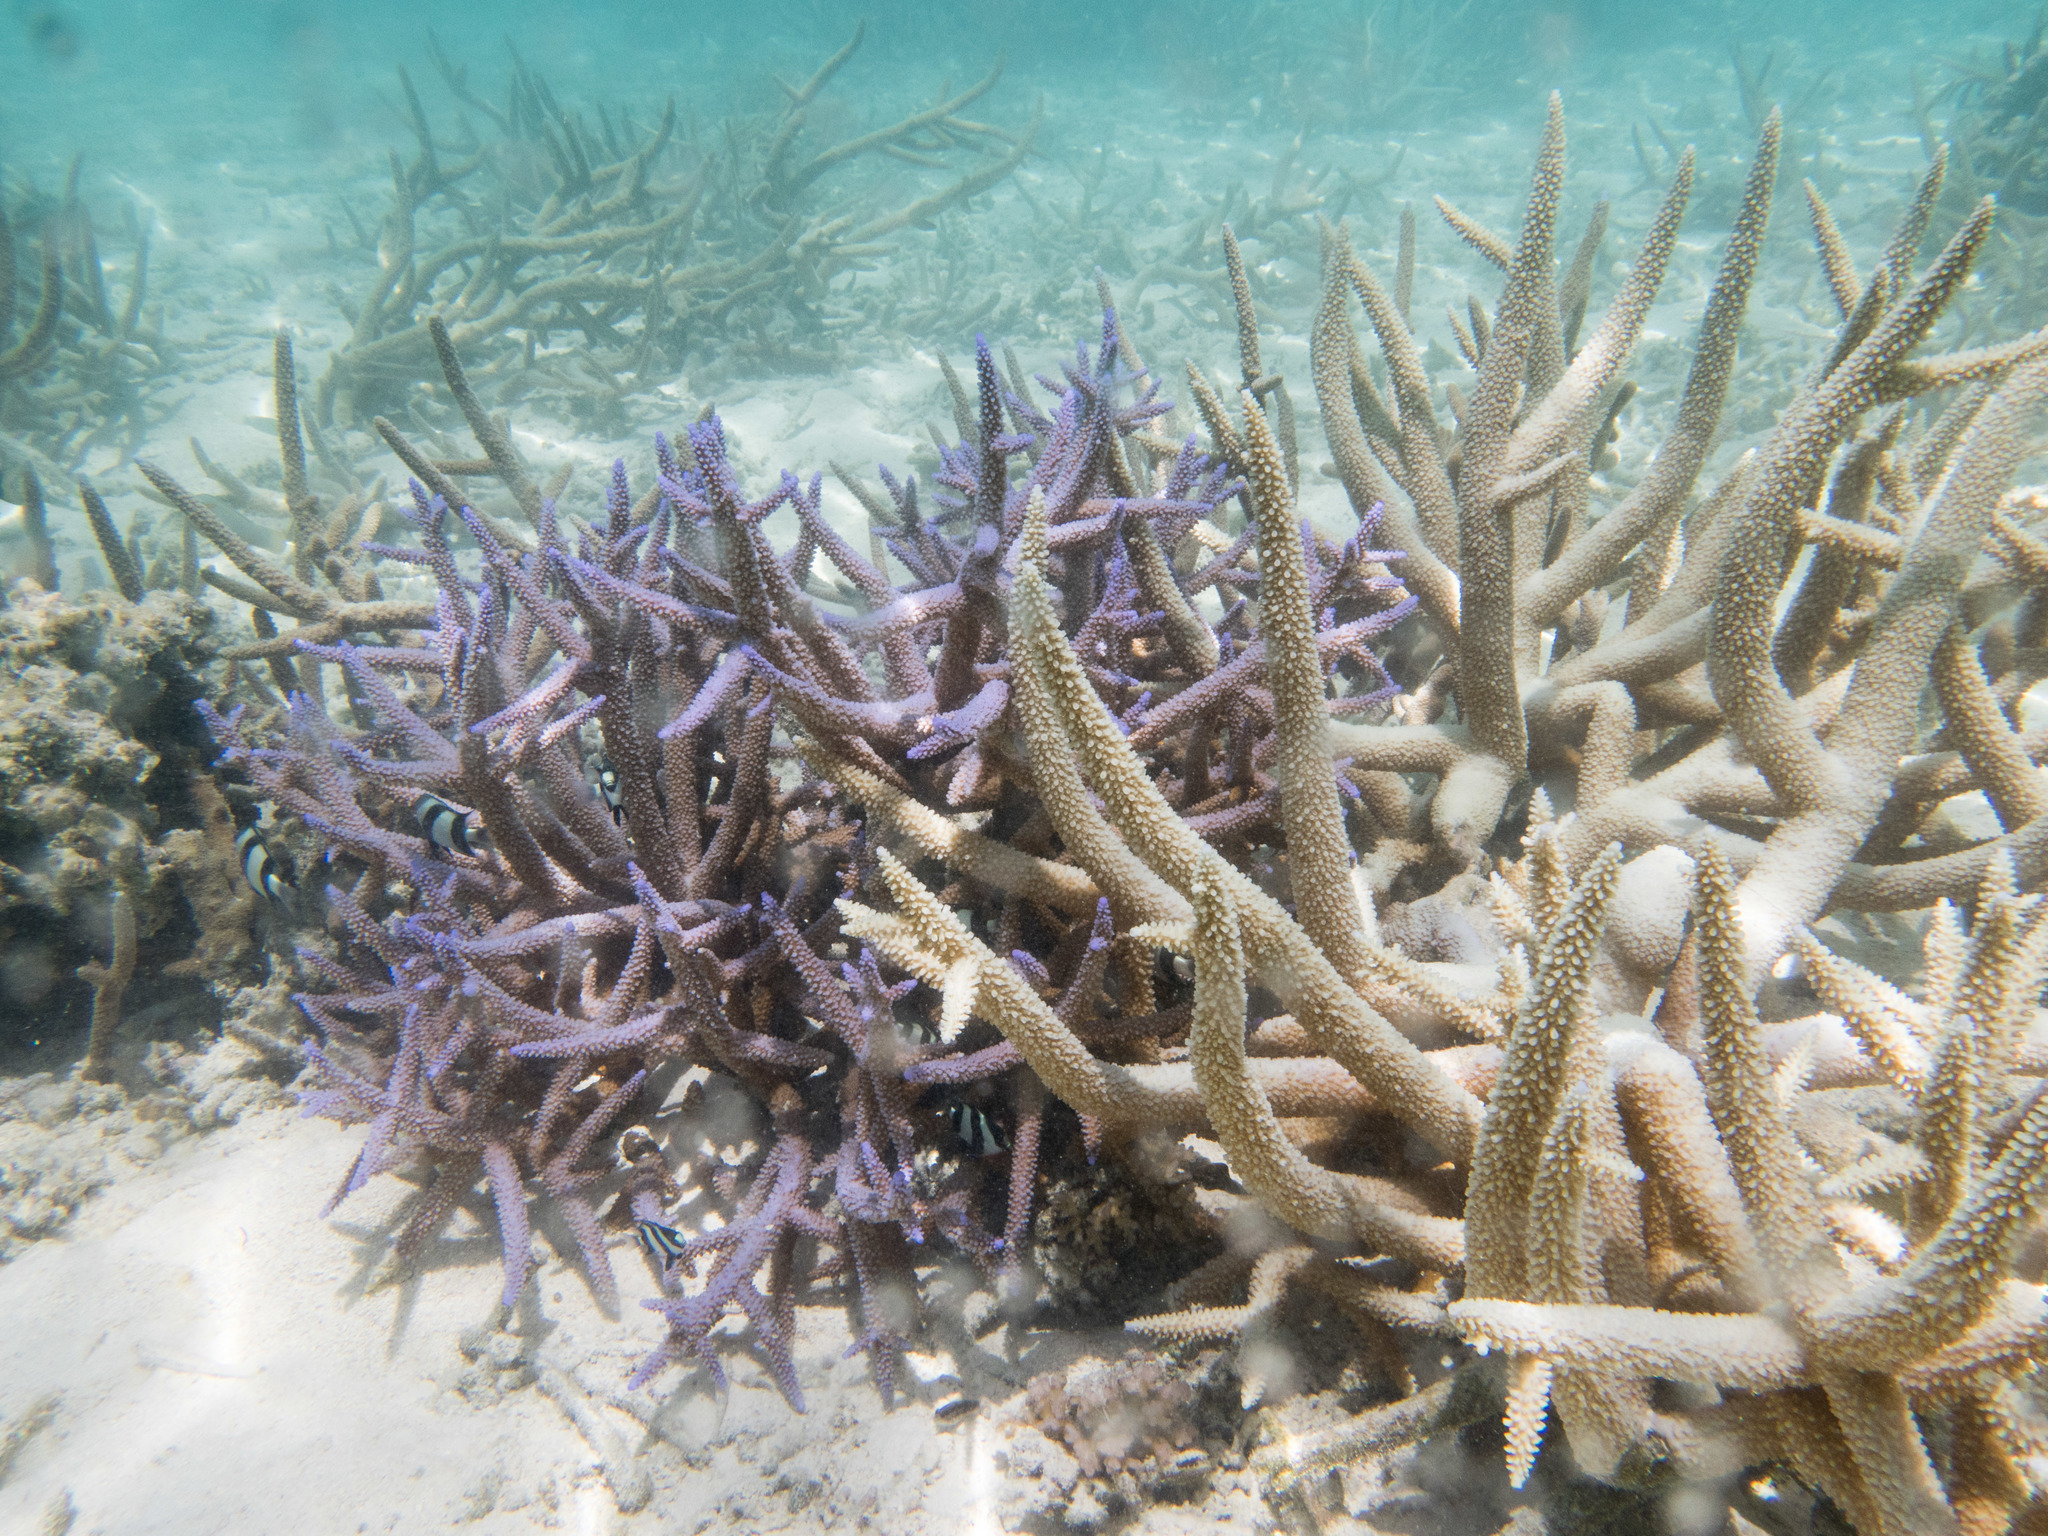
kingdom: Animalia
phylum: Cnidaria
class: Anthozoa
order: Scleractinia
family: Acroporidae
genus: Acropora
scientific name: Acropora intermedia
